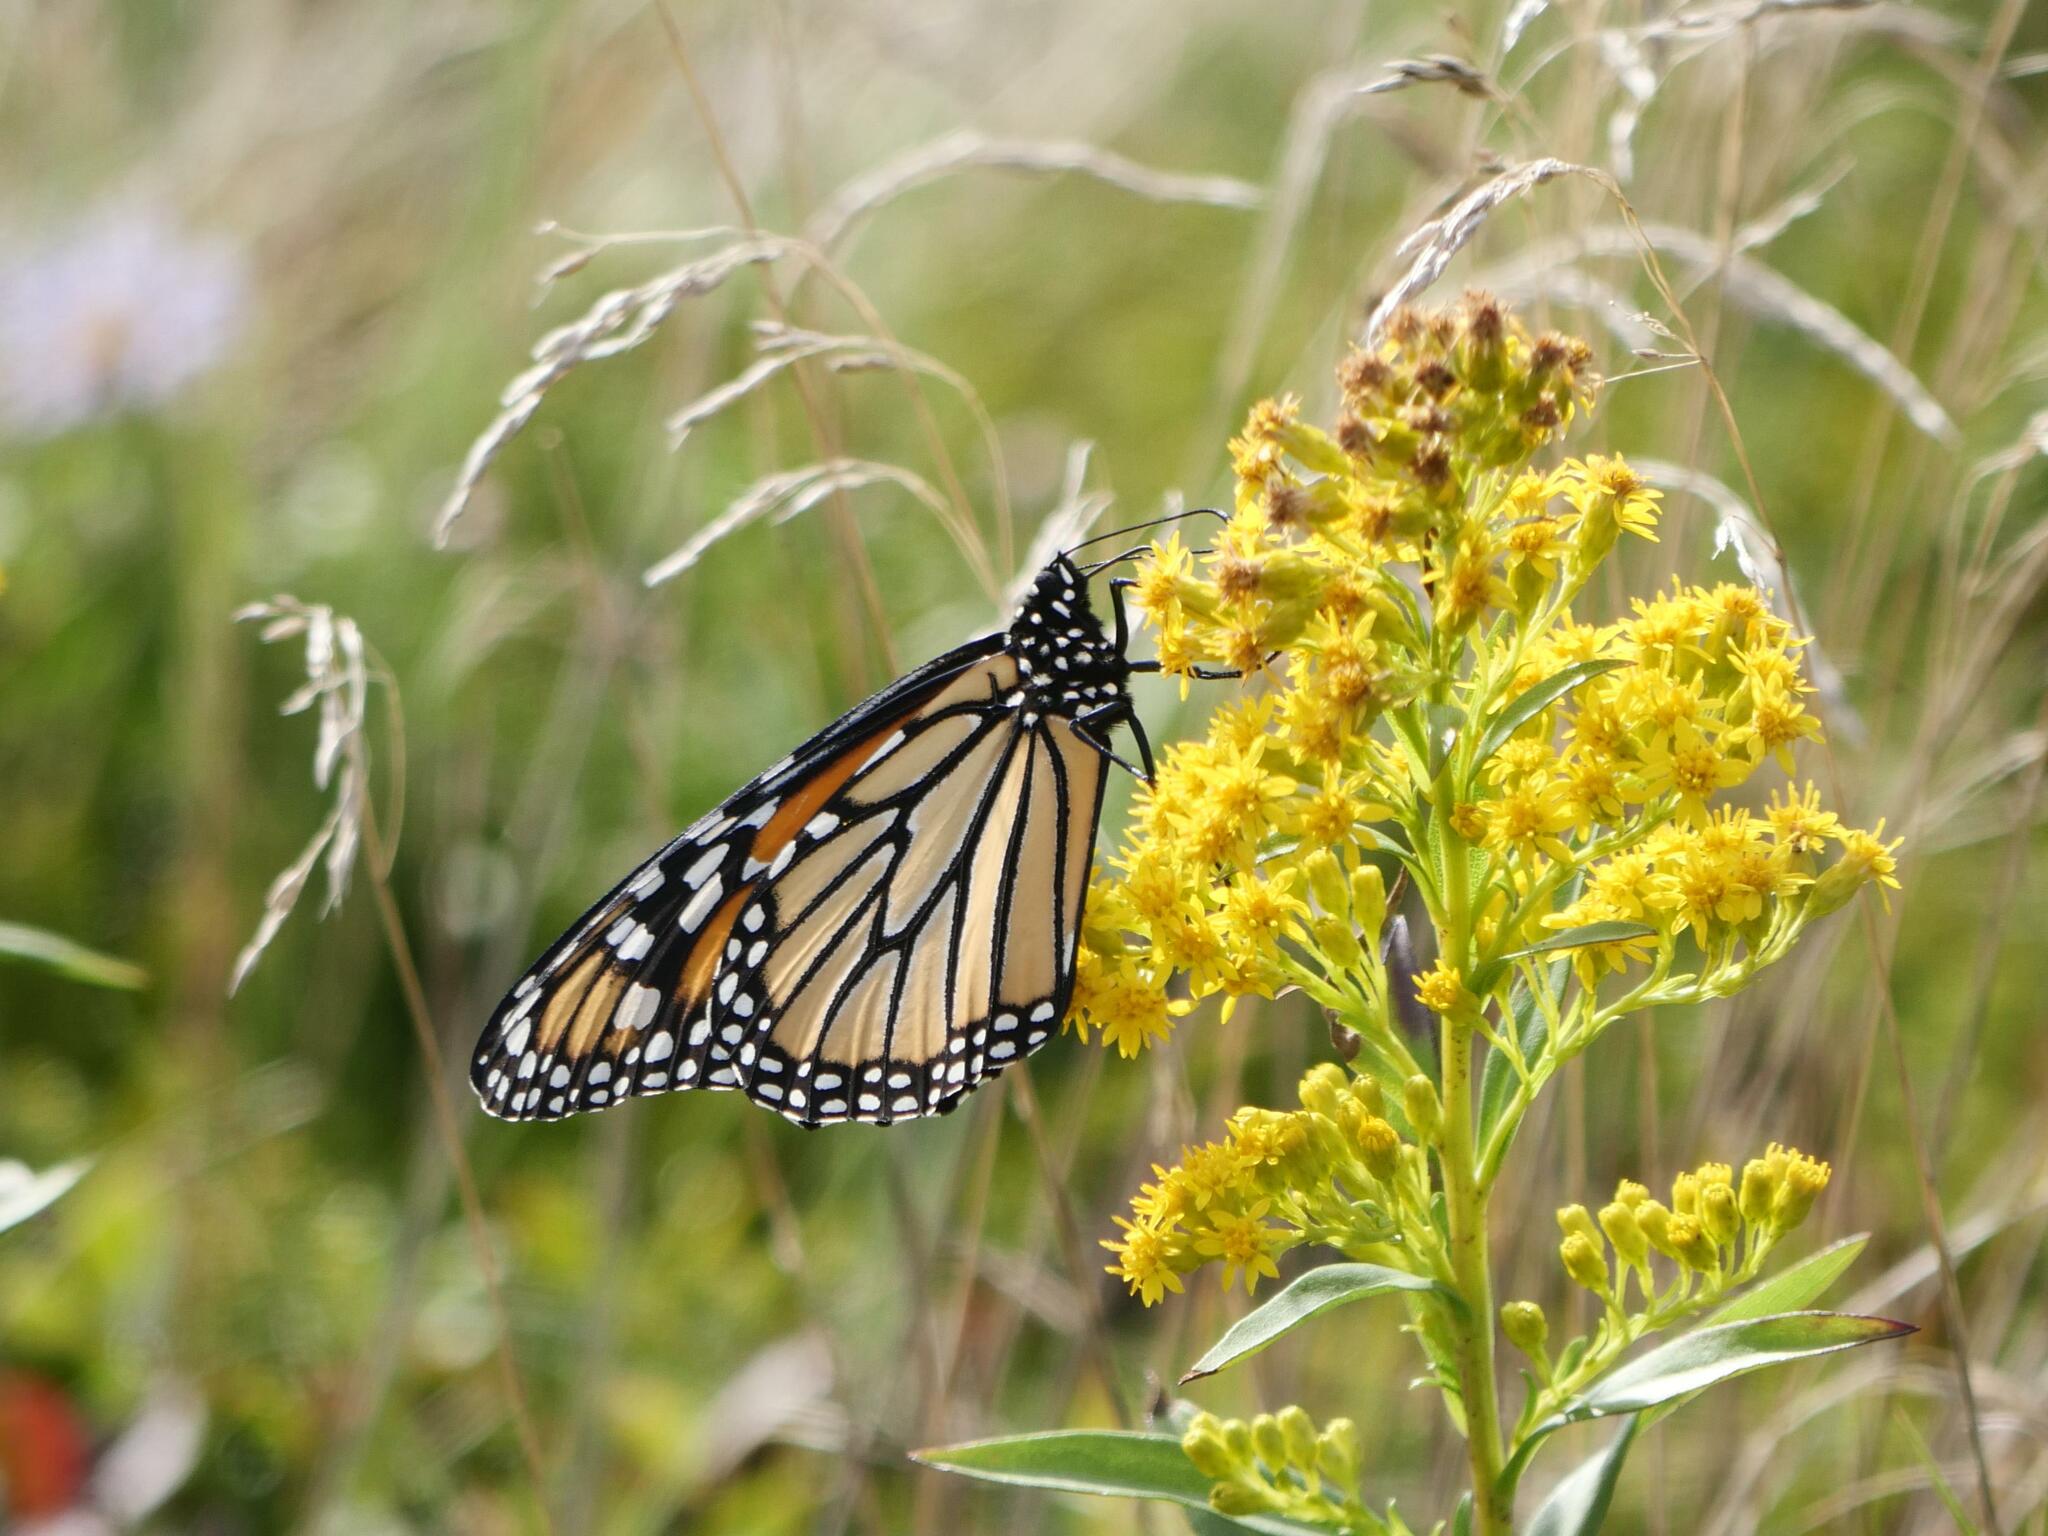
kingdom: Animalia
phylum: Arthropoda
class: Insecta
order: Lepidoptera
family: Nymphalidae
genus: Danaus
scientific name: Danaus plexippus
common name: Monarch
